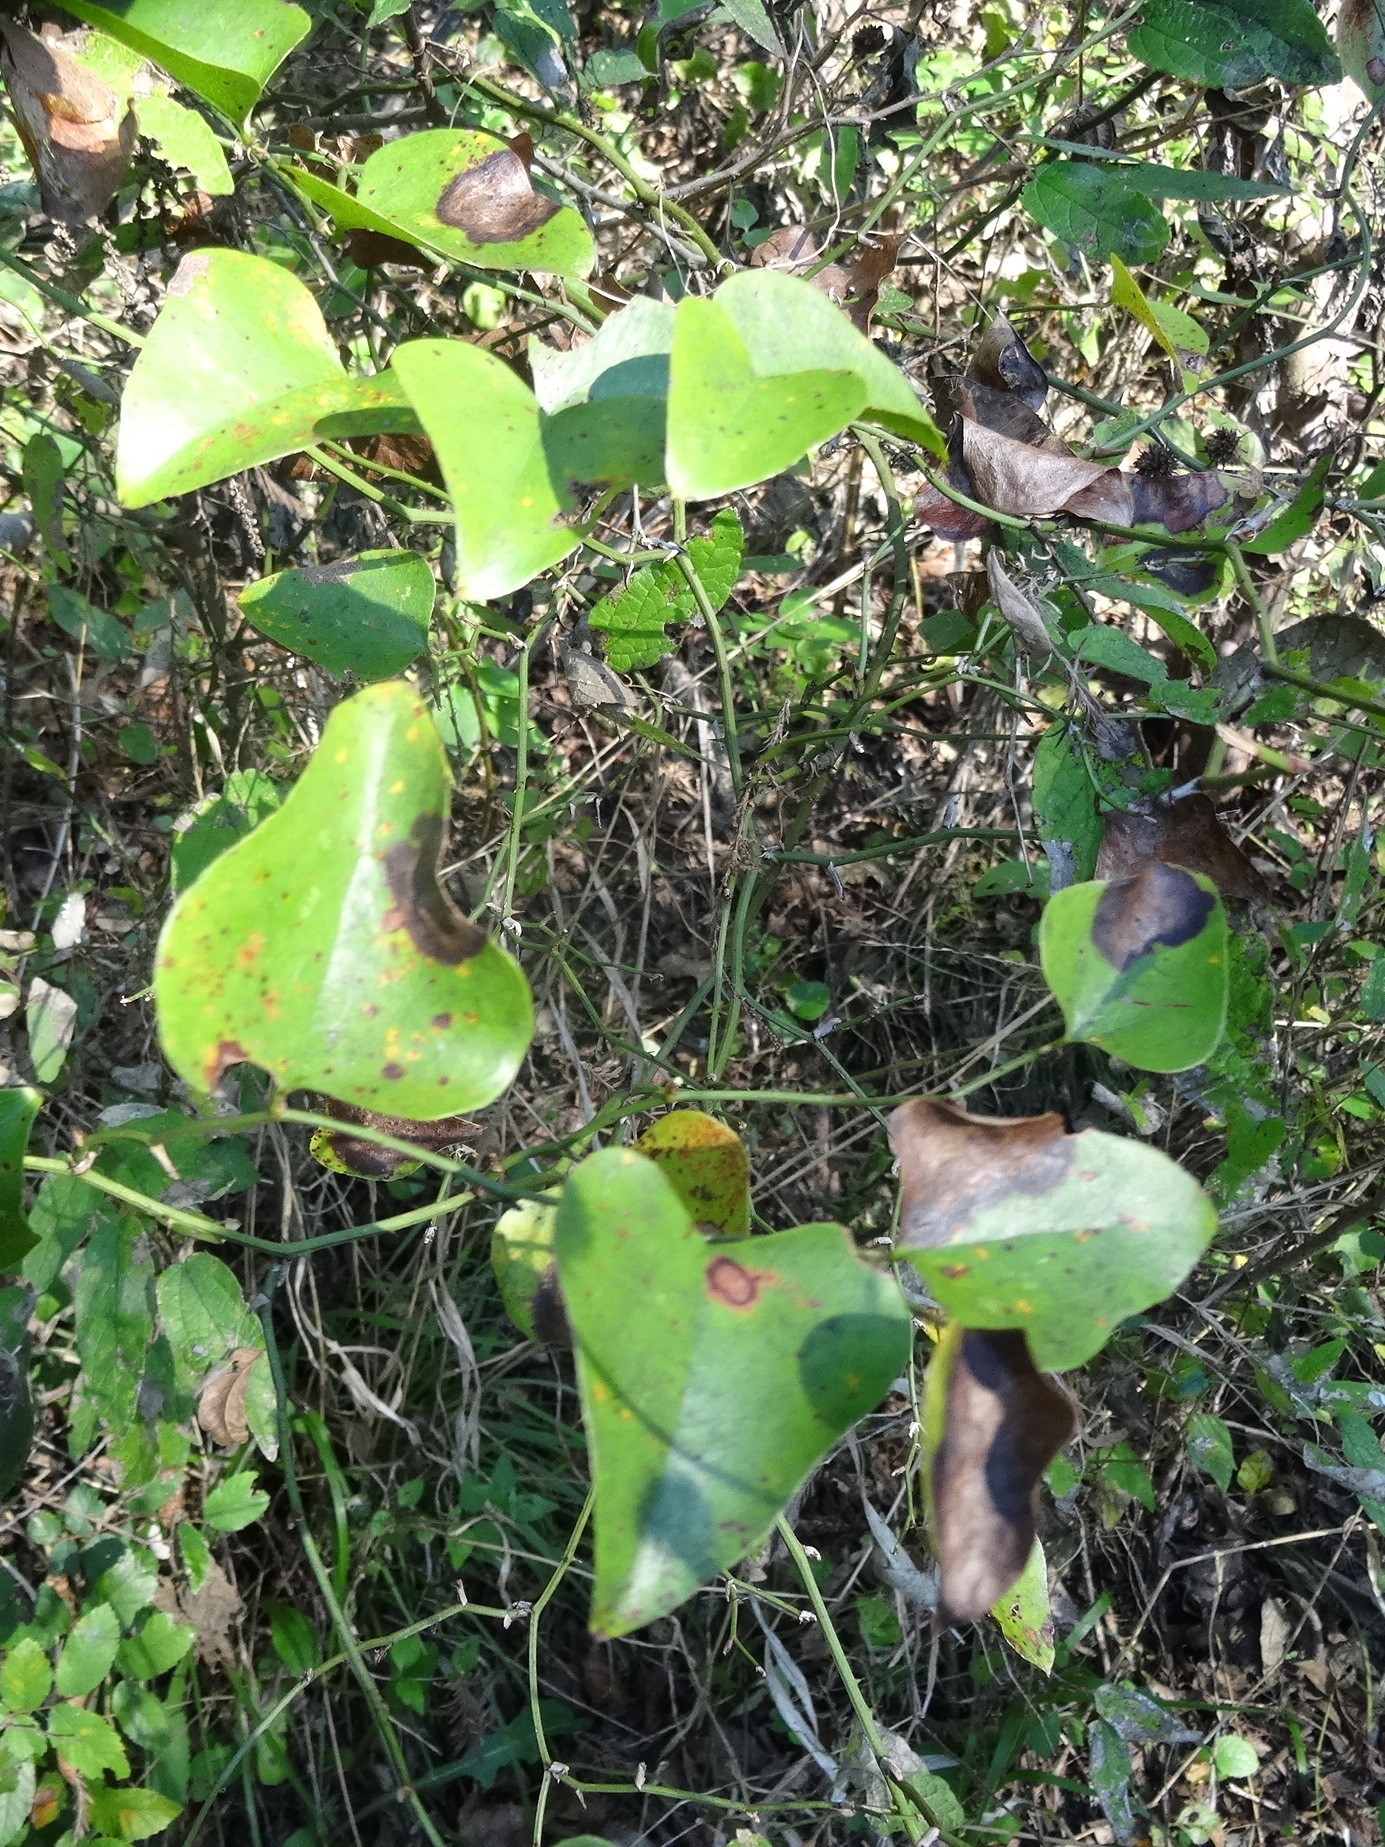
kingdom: Plantae
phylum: Tracheophyta
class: Liliopsida
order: Liliales
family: Smilacaceae
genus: Smilax
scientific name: Smilax bona-nox
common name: Catbrier
